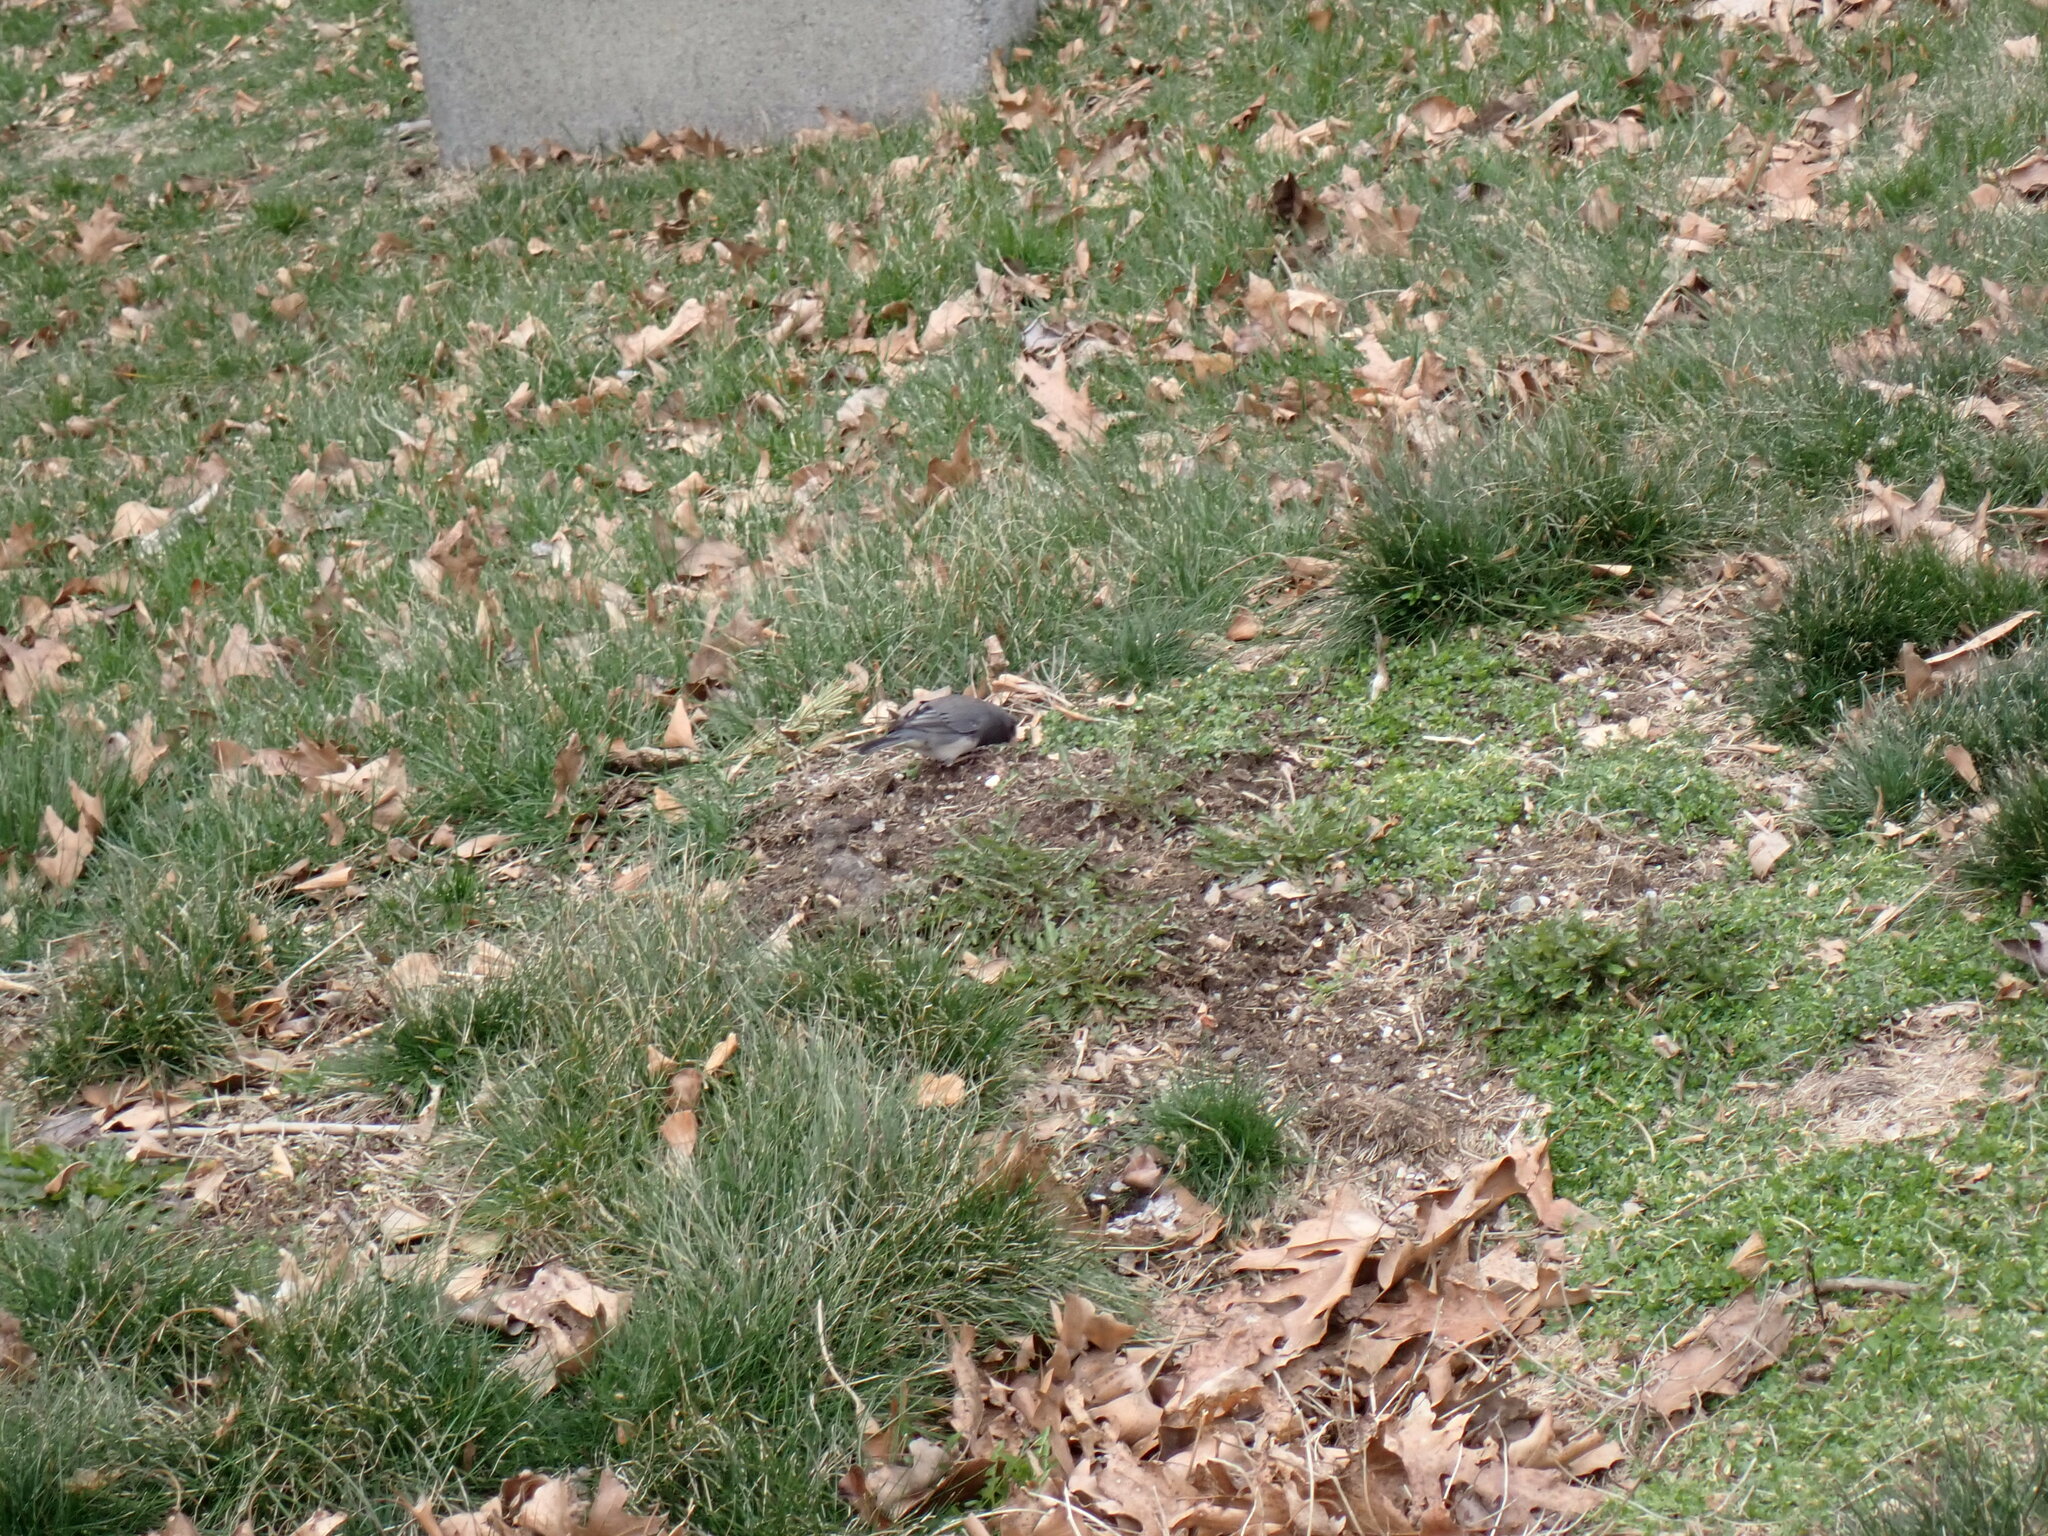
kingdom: Animalia
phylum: Chordata
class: Aves
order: Passeriformes
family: Passerellidae
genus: Junco
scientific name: Junco hyemalis
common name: Dark-eyed junco
